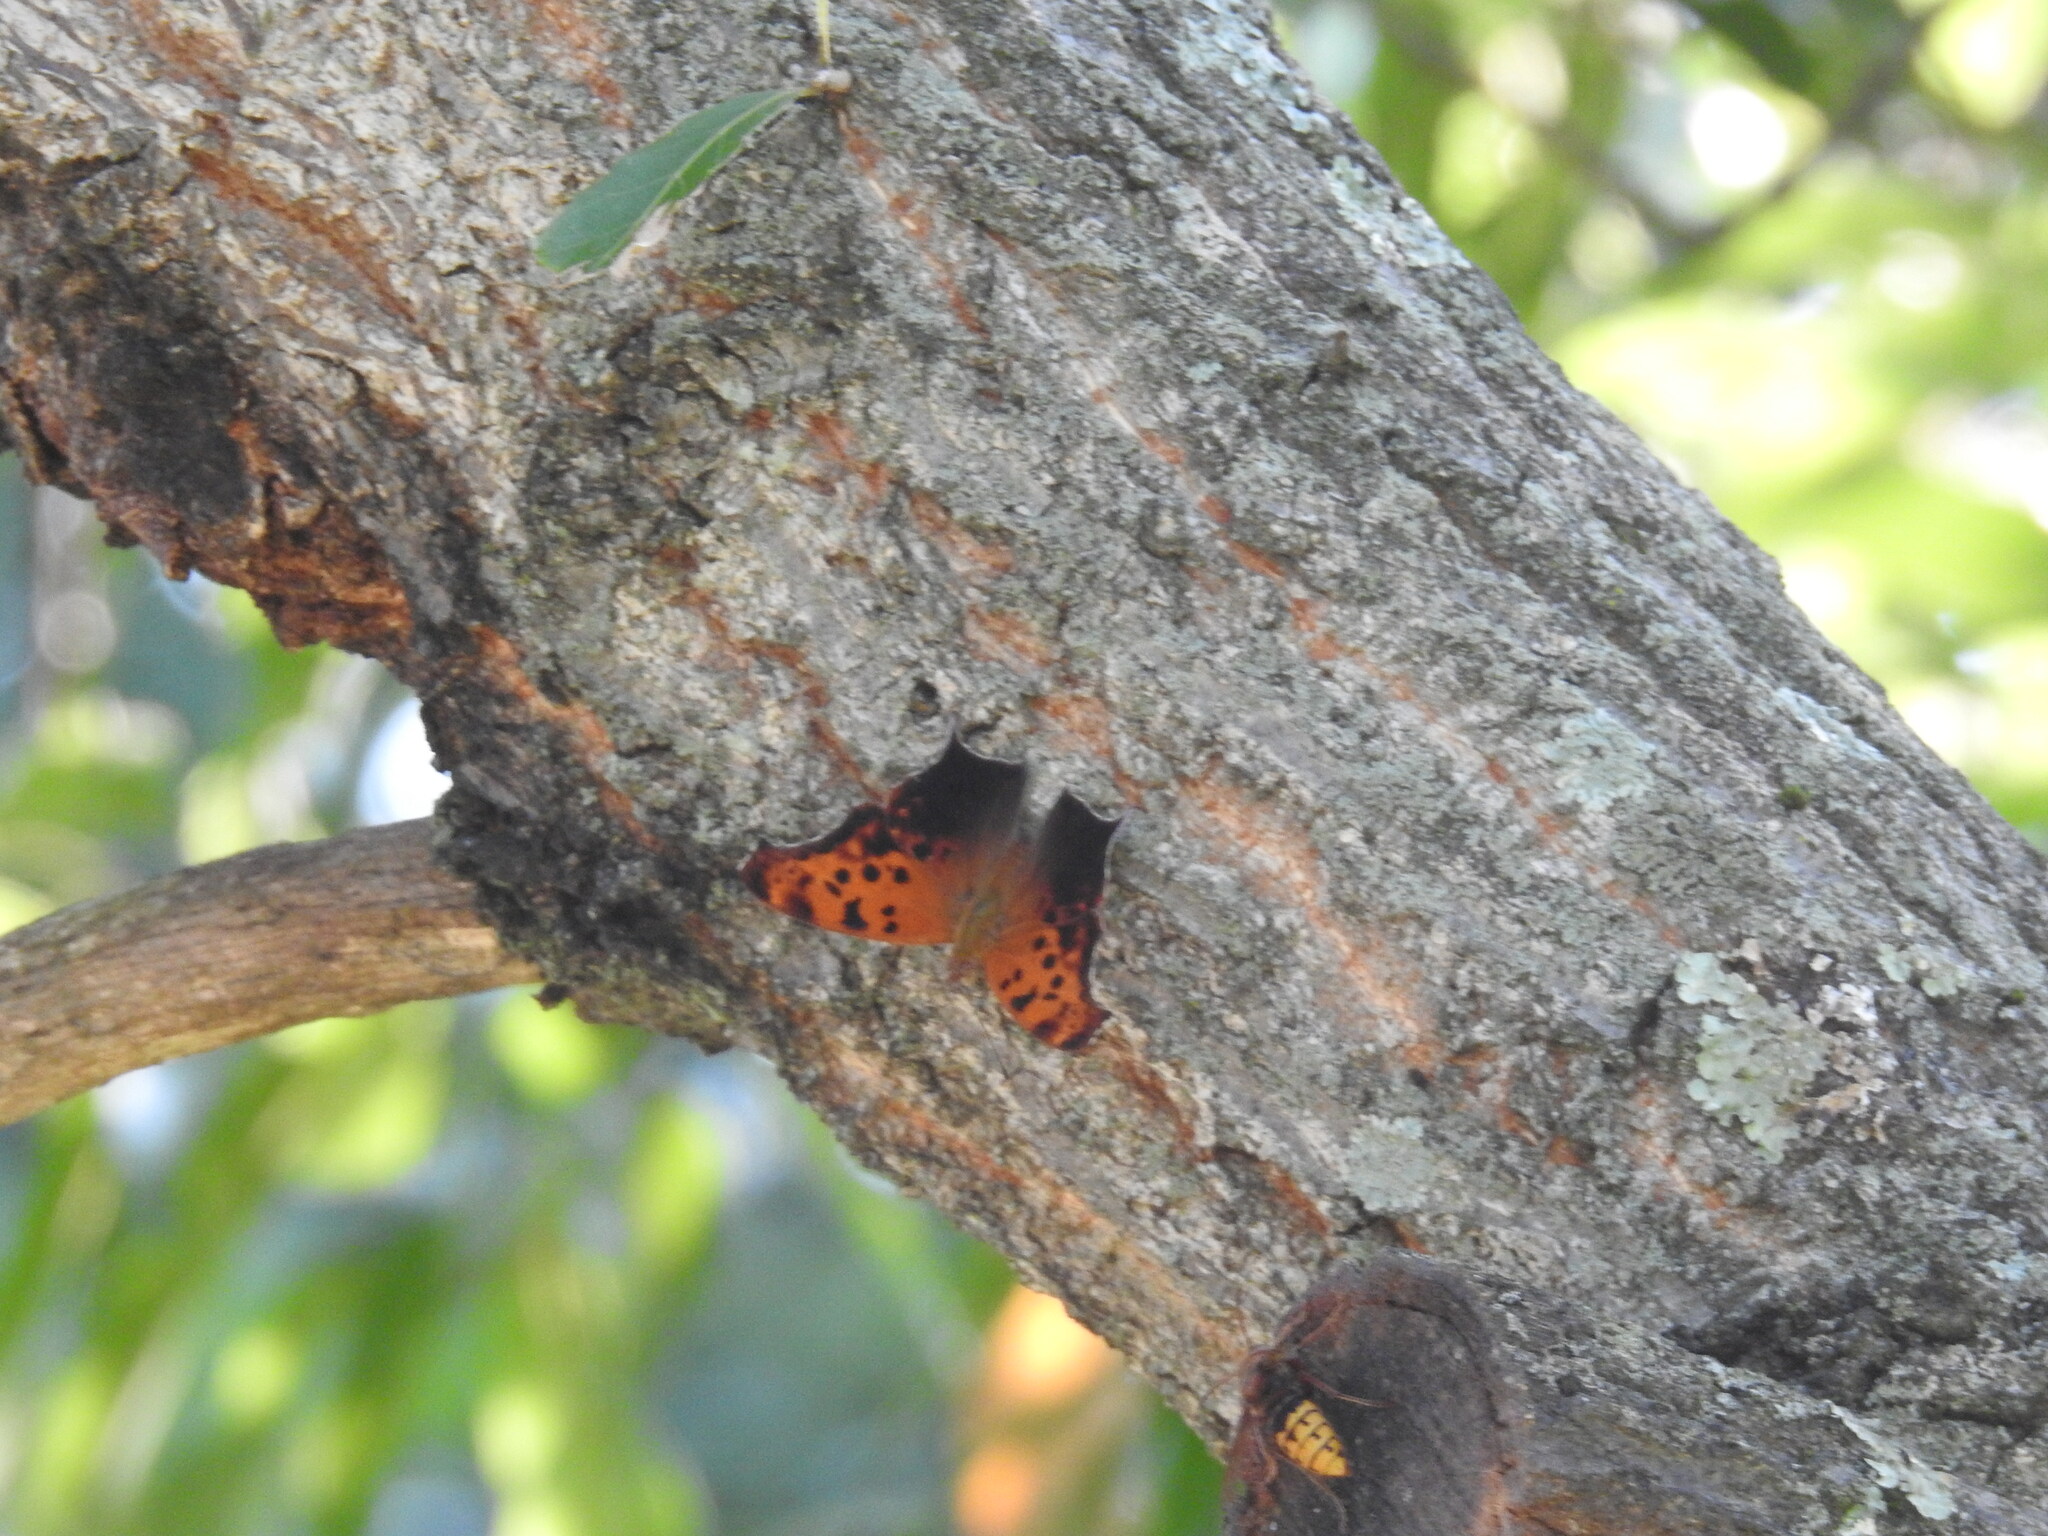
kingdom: Animalia
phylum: Arthropoda
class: Insecta
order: Lepidoptera
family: Nymphalidae
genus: Polygonia
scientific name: Polygonia interrogationis
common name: Question mark
